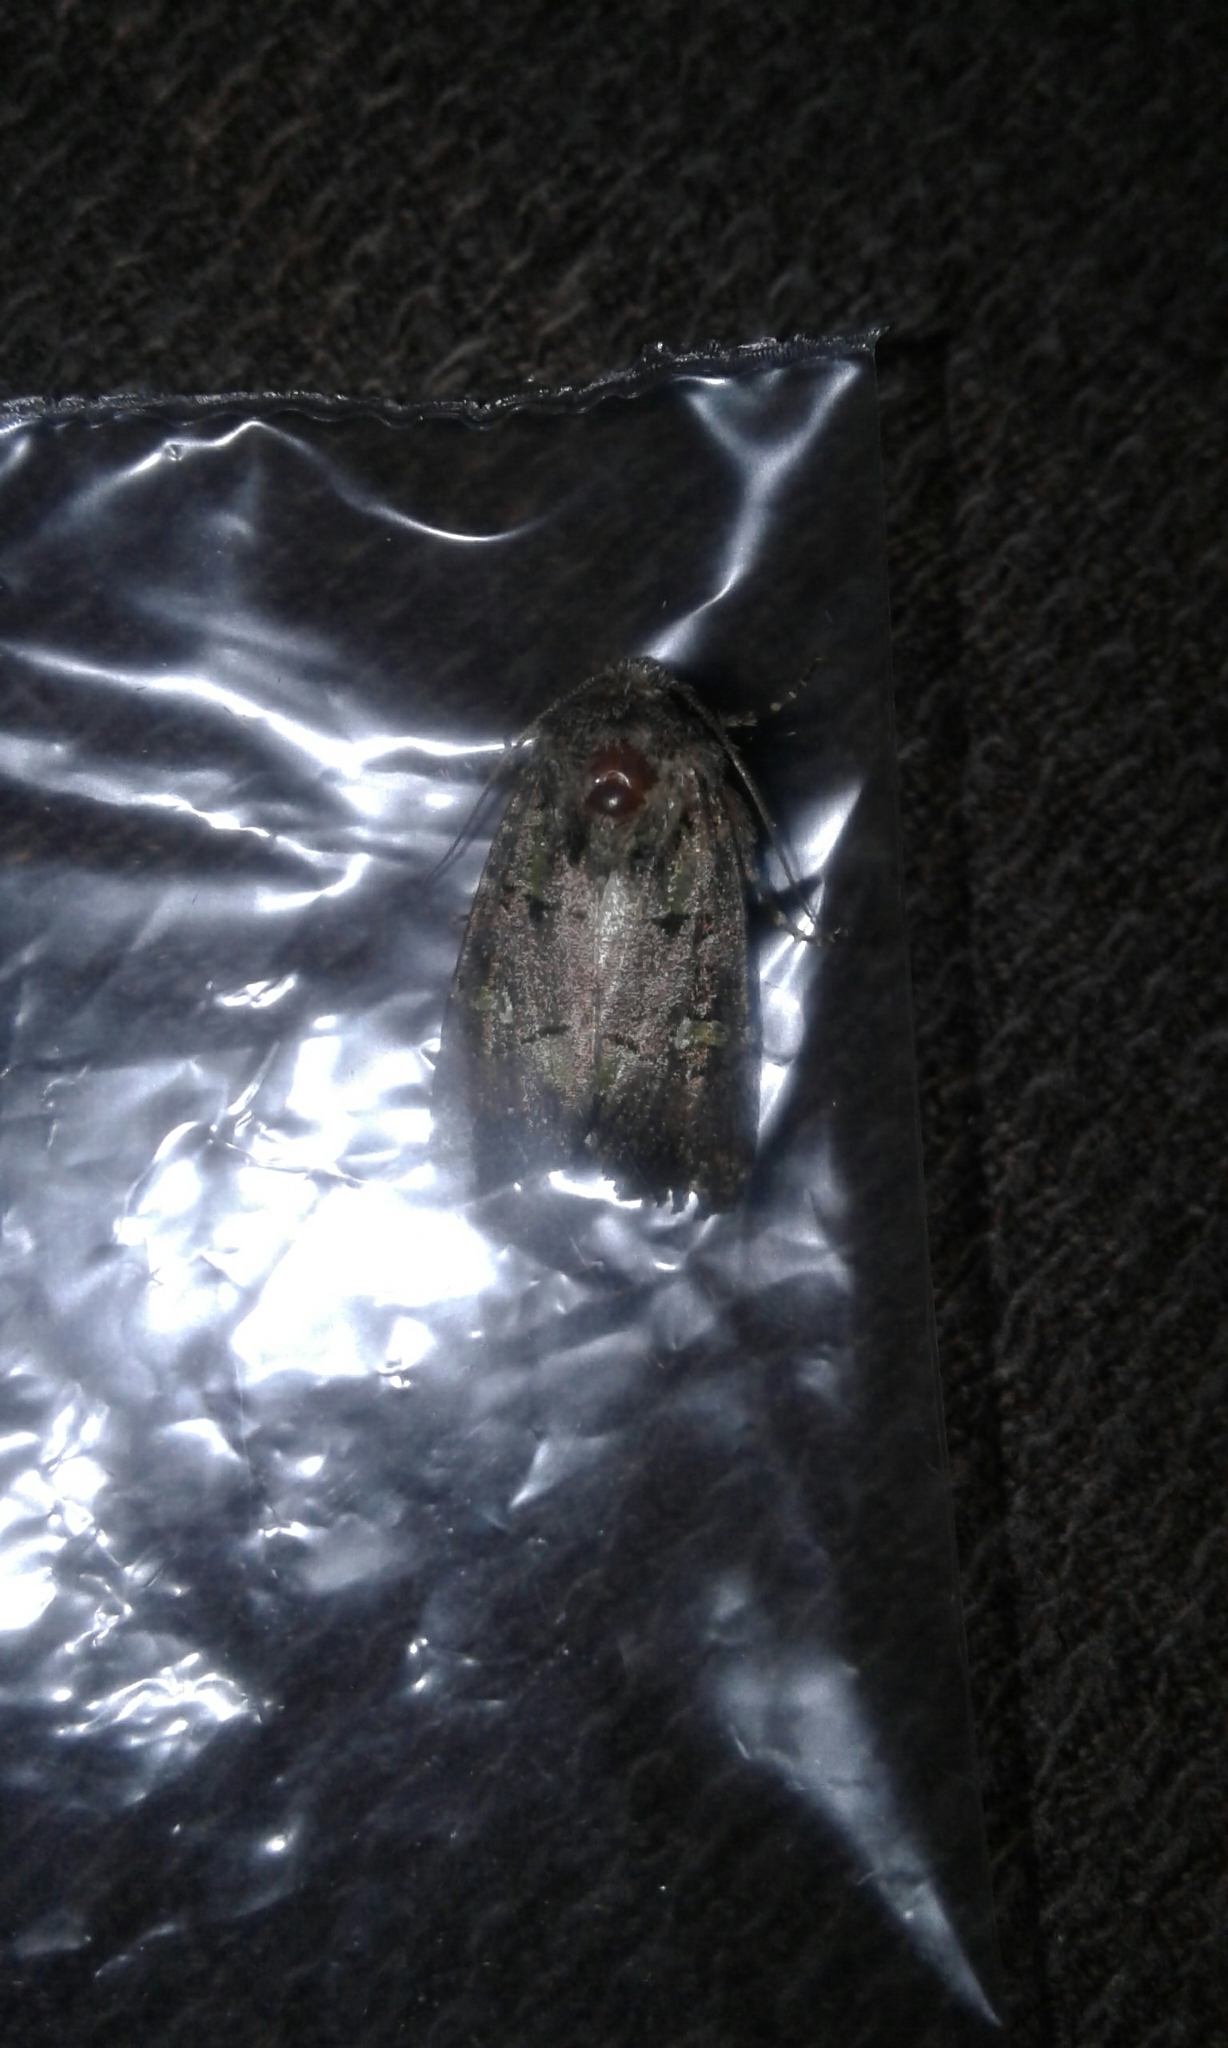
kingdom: Animalia
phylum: Arthropoda
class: Insecta
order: Lepidoptera
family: Noctuidae
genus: Lacinipolia
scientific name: Lacinipolia renigera
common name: Kidney-spotted minor
